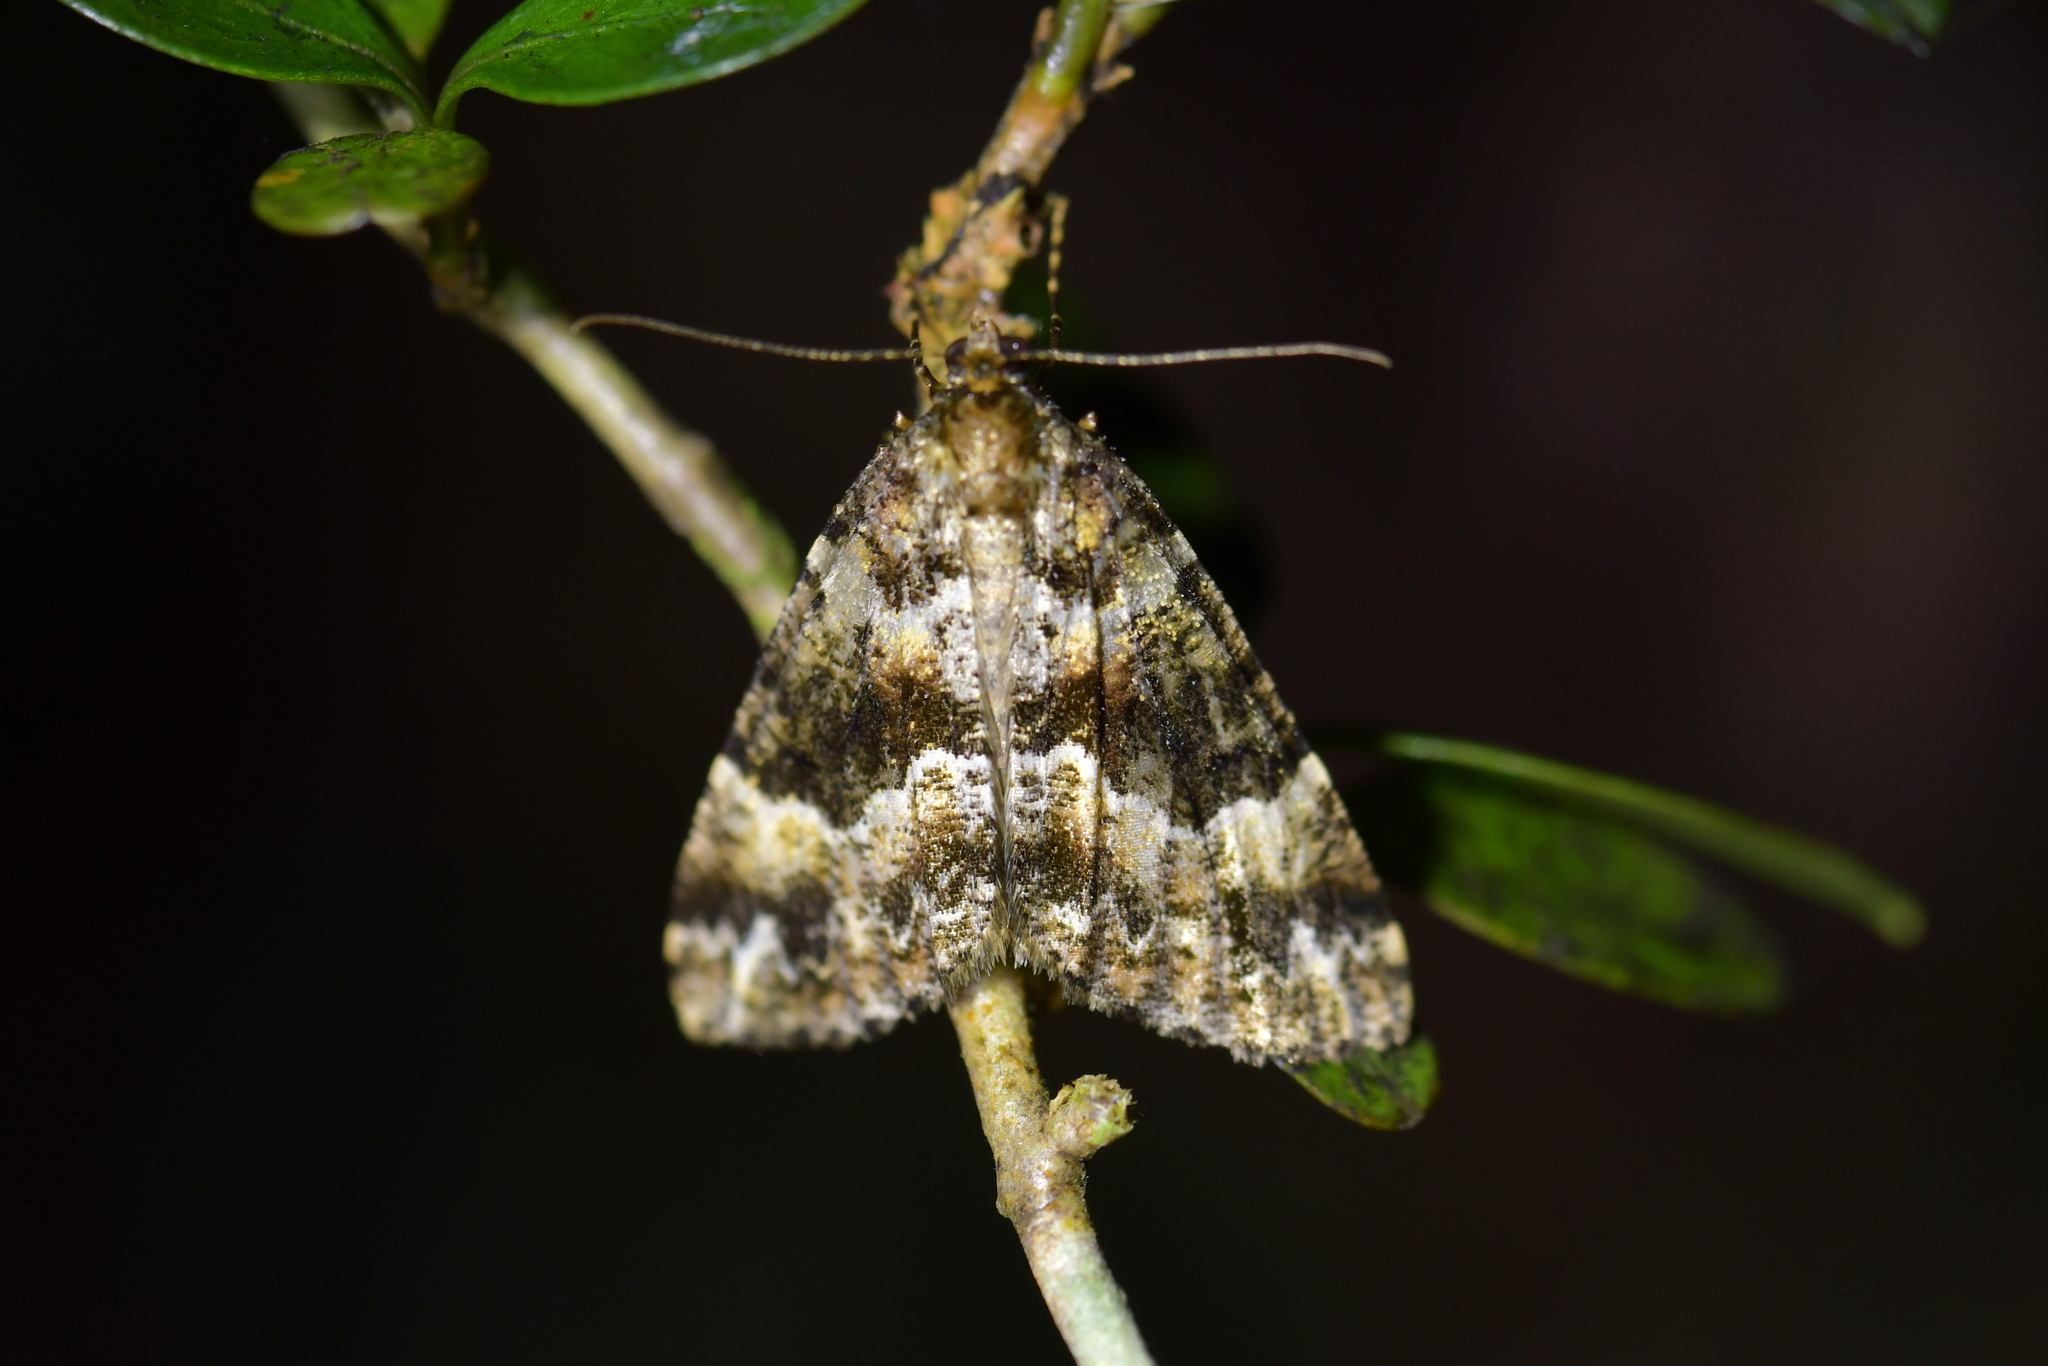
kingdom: Animalia
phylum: Arthropoda
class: Insecta
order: Lepidoptera
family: Geometridae
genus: Pseudocoremia
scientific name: Pseudocoremia productata
